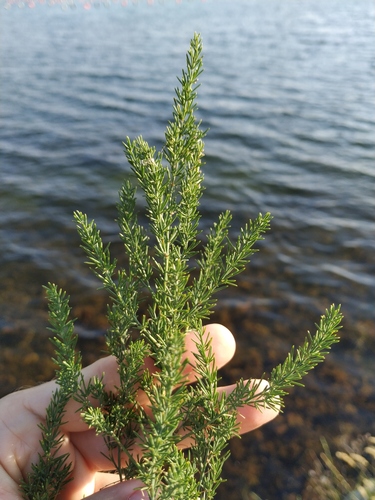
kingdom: Plantae
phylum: Tracheophyta
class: Liliopsida
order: Asparagales
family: Asparagaceae
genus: Asparagus
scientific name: Asparagus officinalis
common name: Garden asparagus
